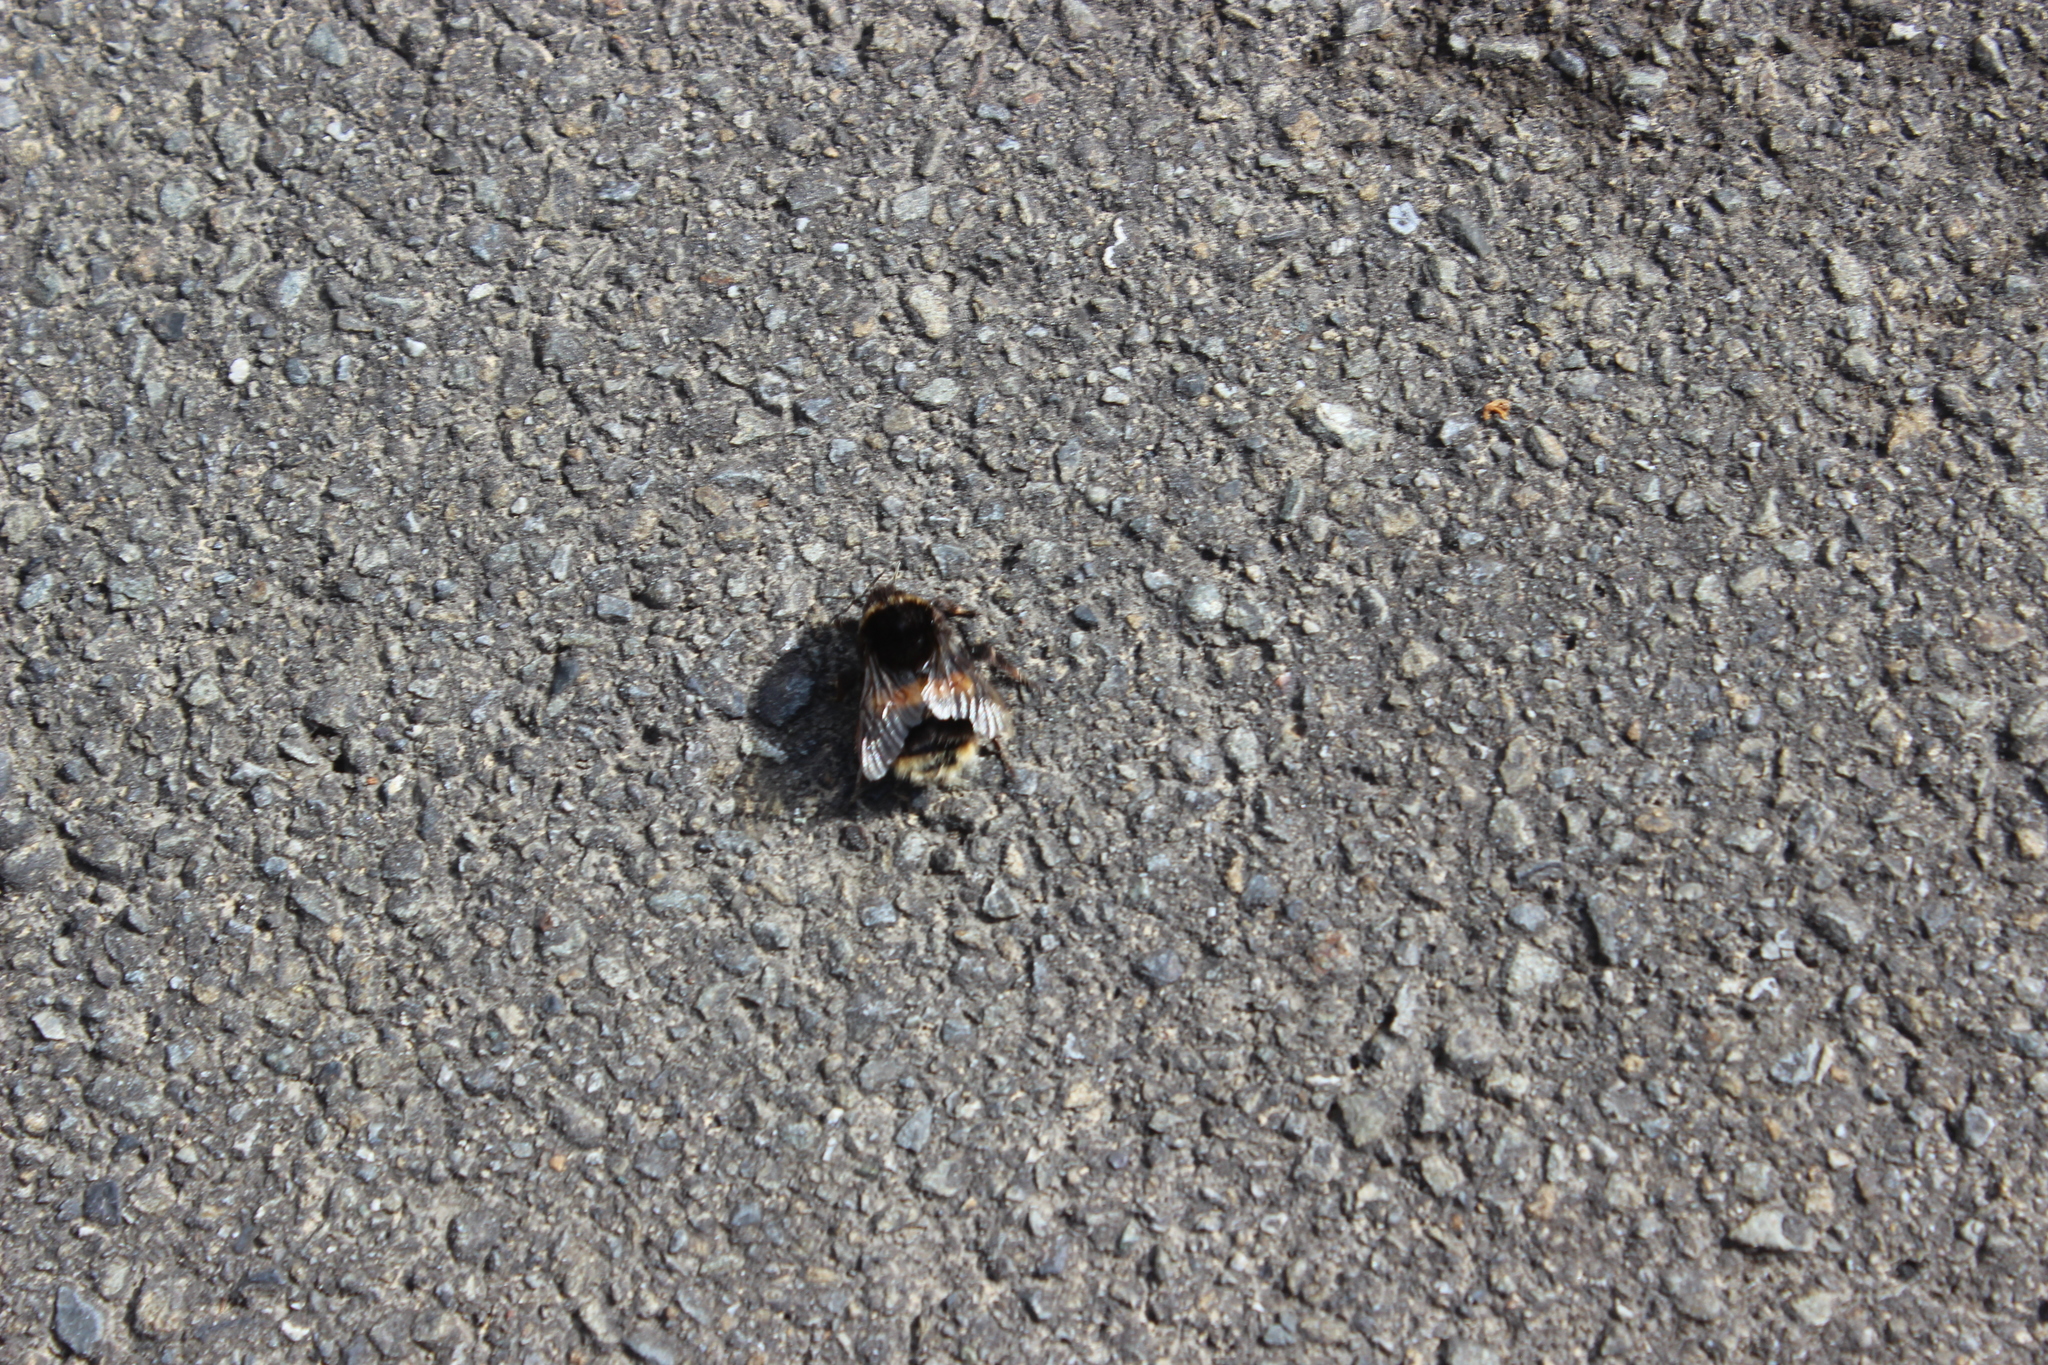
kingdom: Animalia
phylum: Arthropoda
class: Insecta
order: Hymenoptera
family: Apidae
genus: Bombus
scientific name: Bombus terrestris
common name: Buff-tailed bumblebee
